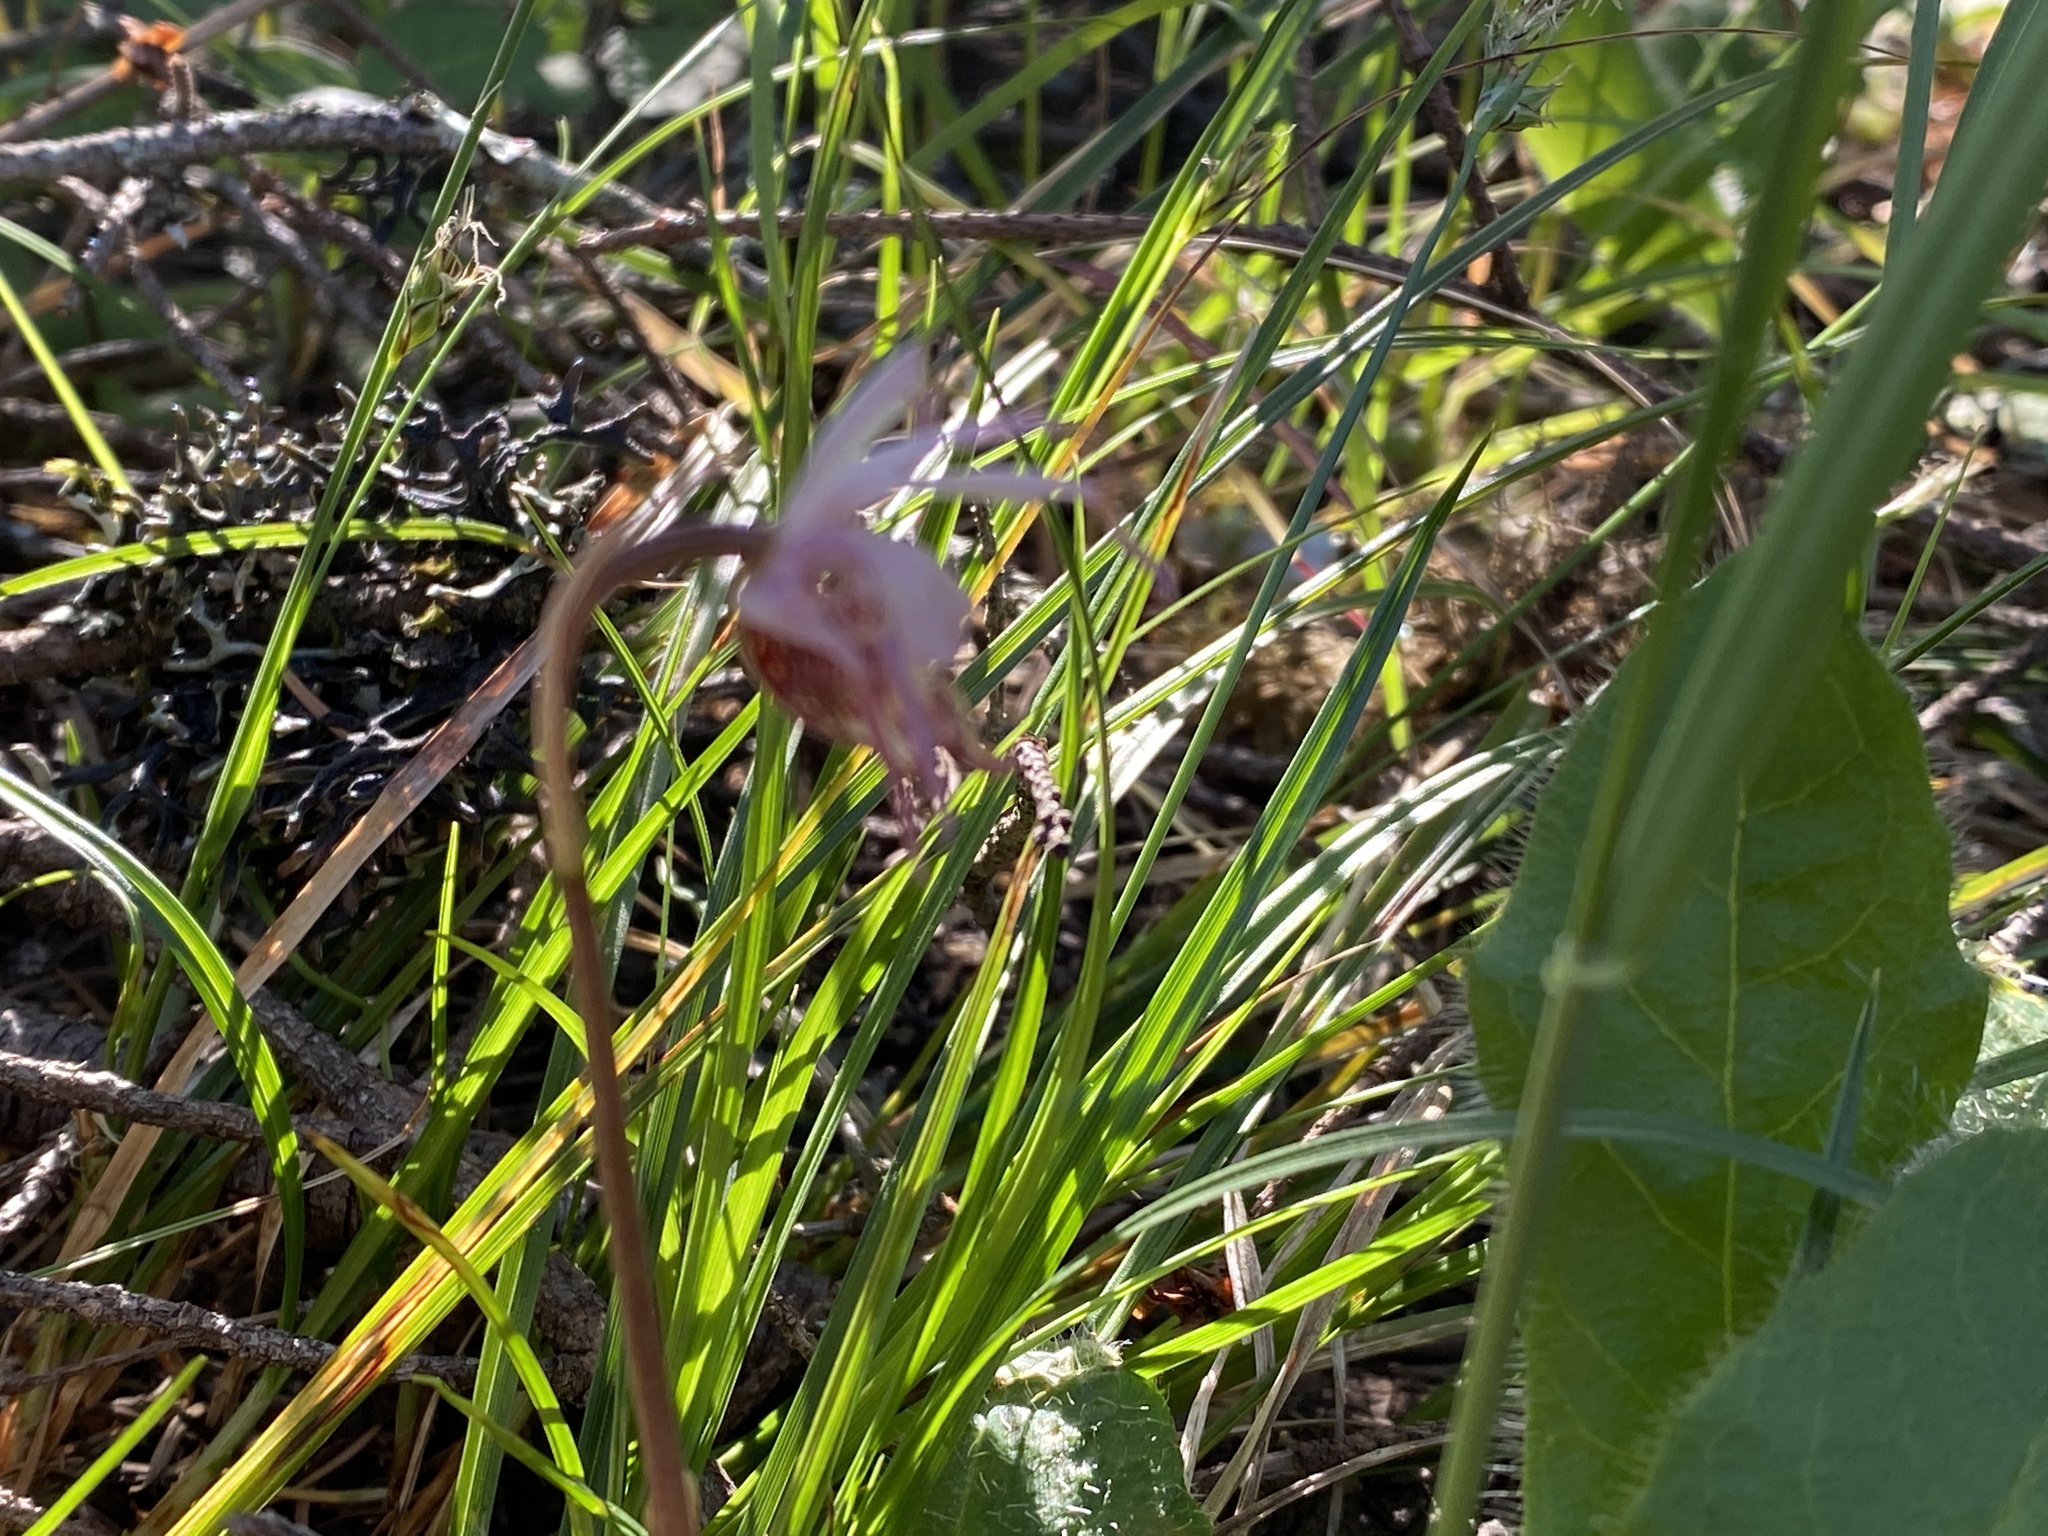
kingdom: Plantae
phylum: Tracheophyta
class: Liliopsida
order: Asparagales
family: Orchidaceae
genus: Calypso
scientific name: Calypso bulbosa
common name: Calypso
